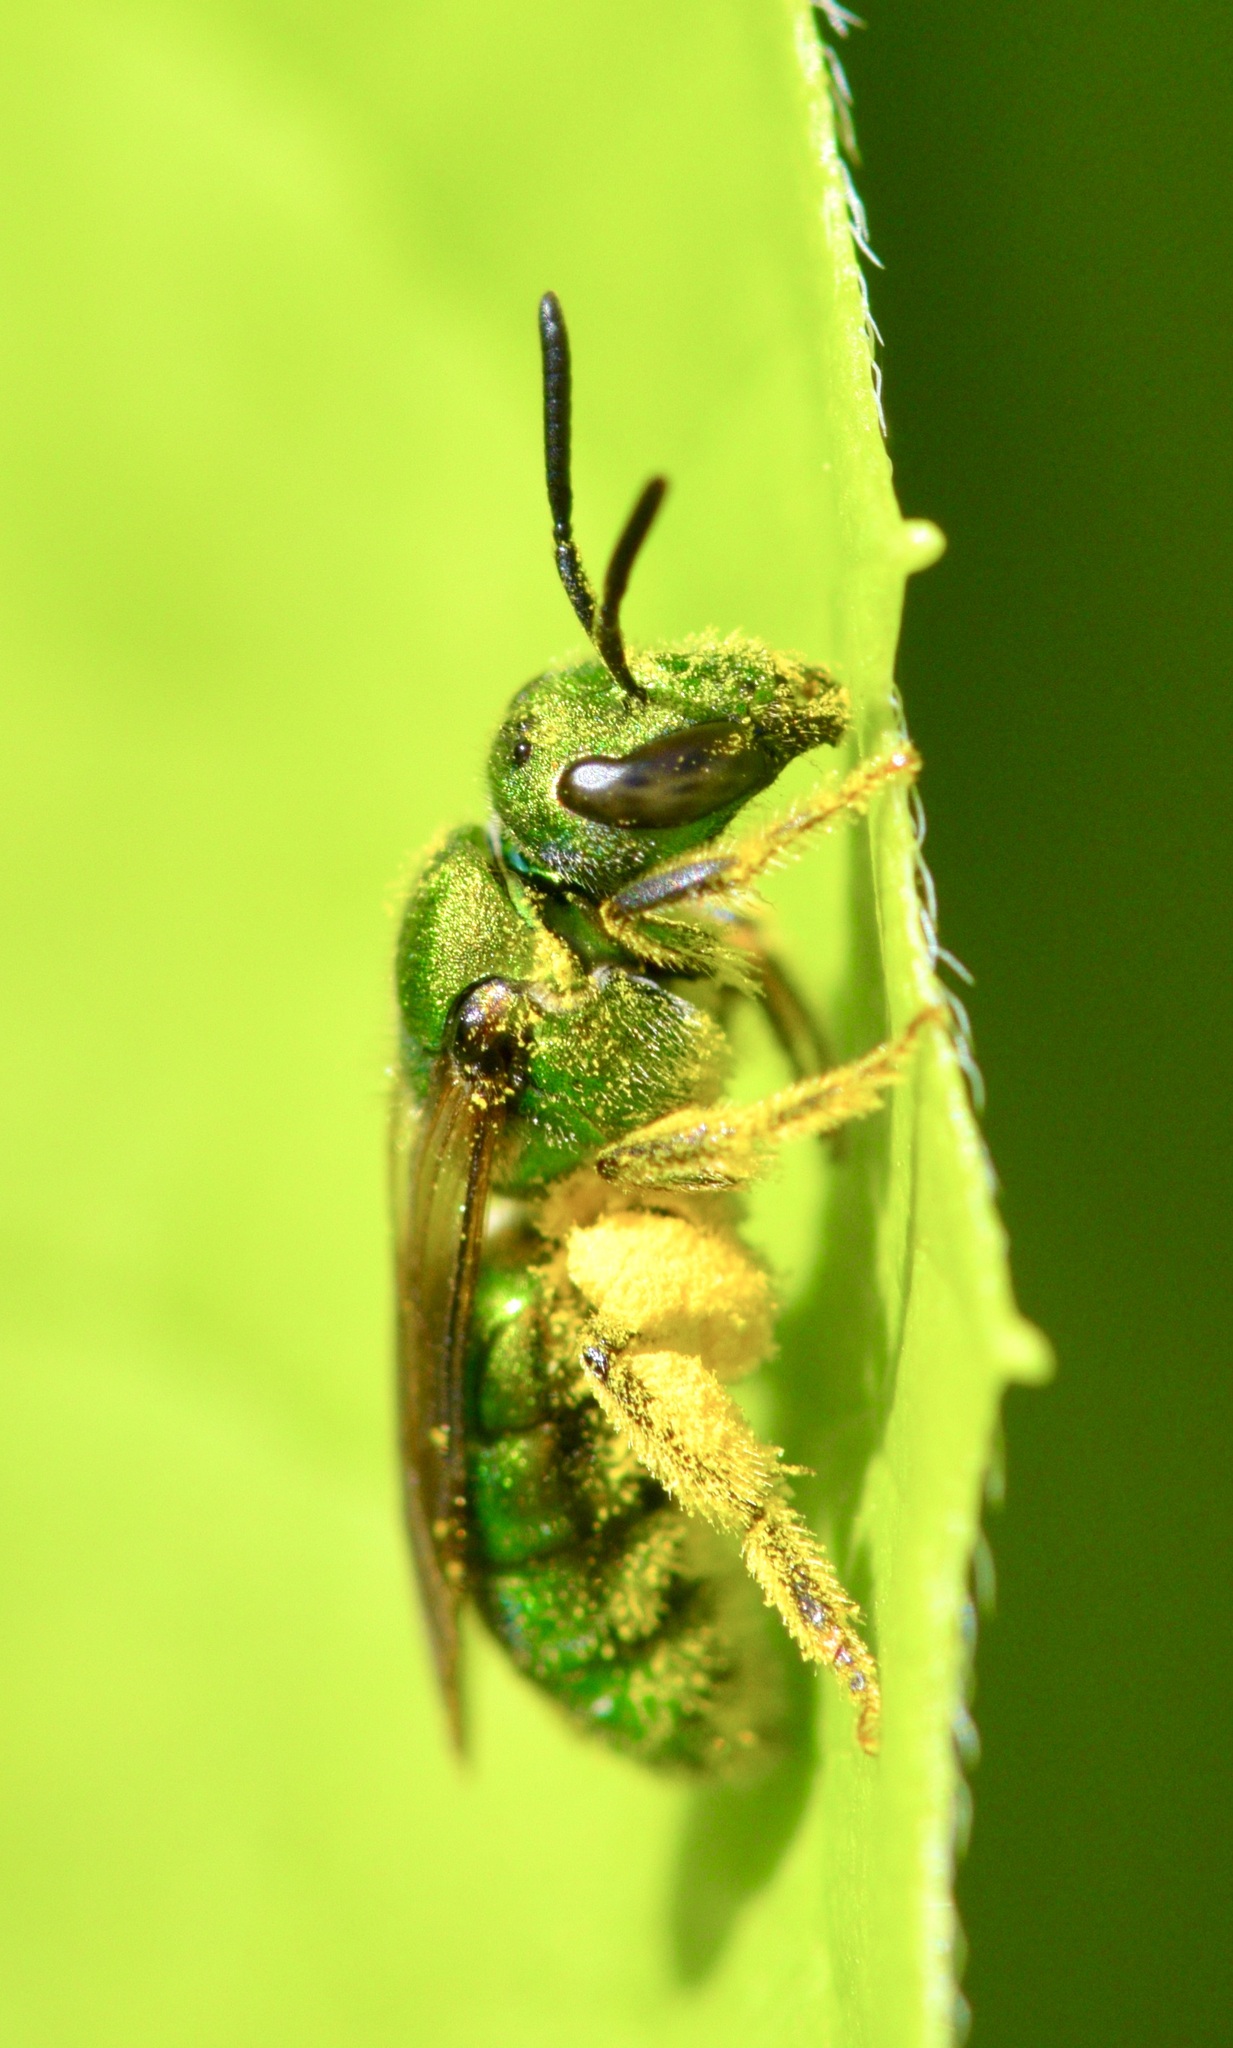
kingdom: Animalia
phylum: Arthropoda
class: Insecta
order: Hymenoptera
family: Halictidae
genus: Augochlora
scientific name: Augochlora pura
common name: Pure green sweat bee
